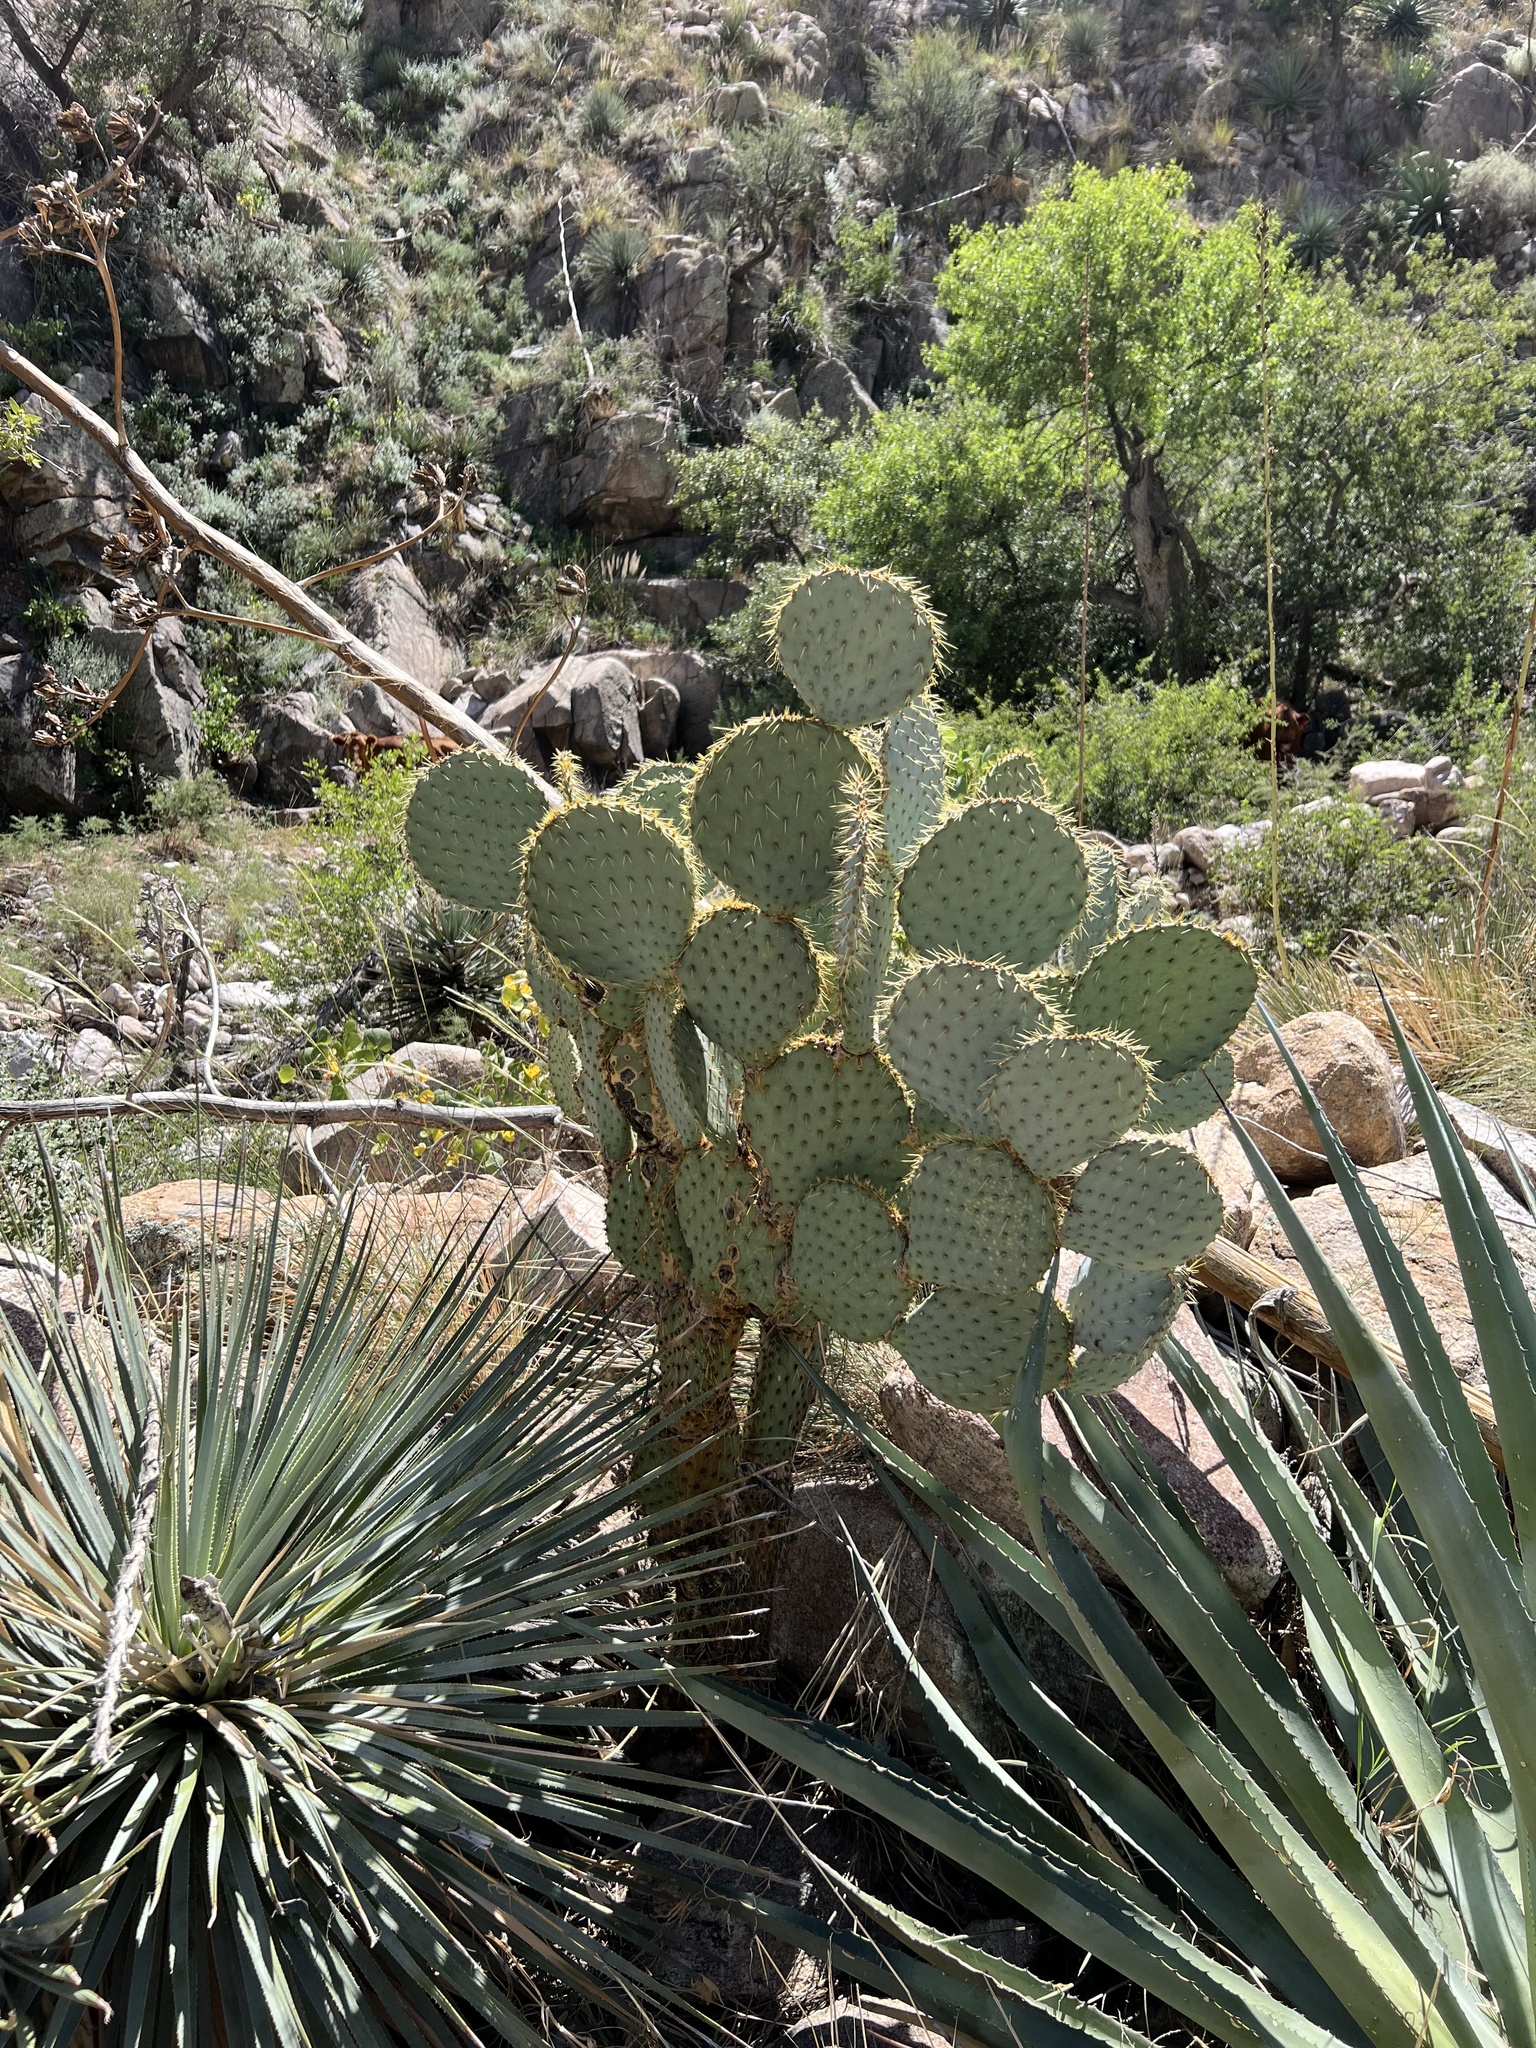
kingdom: Plantae
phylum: Tracheophyta
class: Magnoliopsida
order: Caryophyllales
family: Cactaceae
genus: Opuntia
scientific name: Opuntia chlorotica
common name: Dollar-joint prickly-pear
